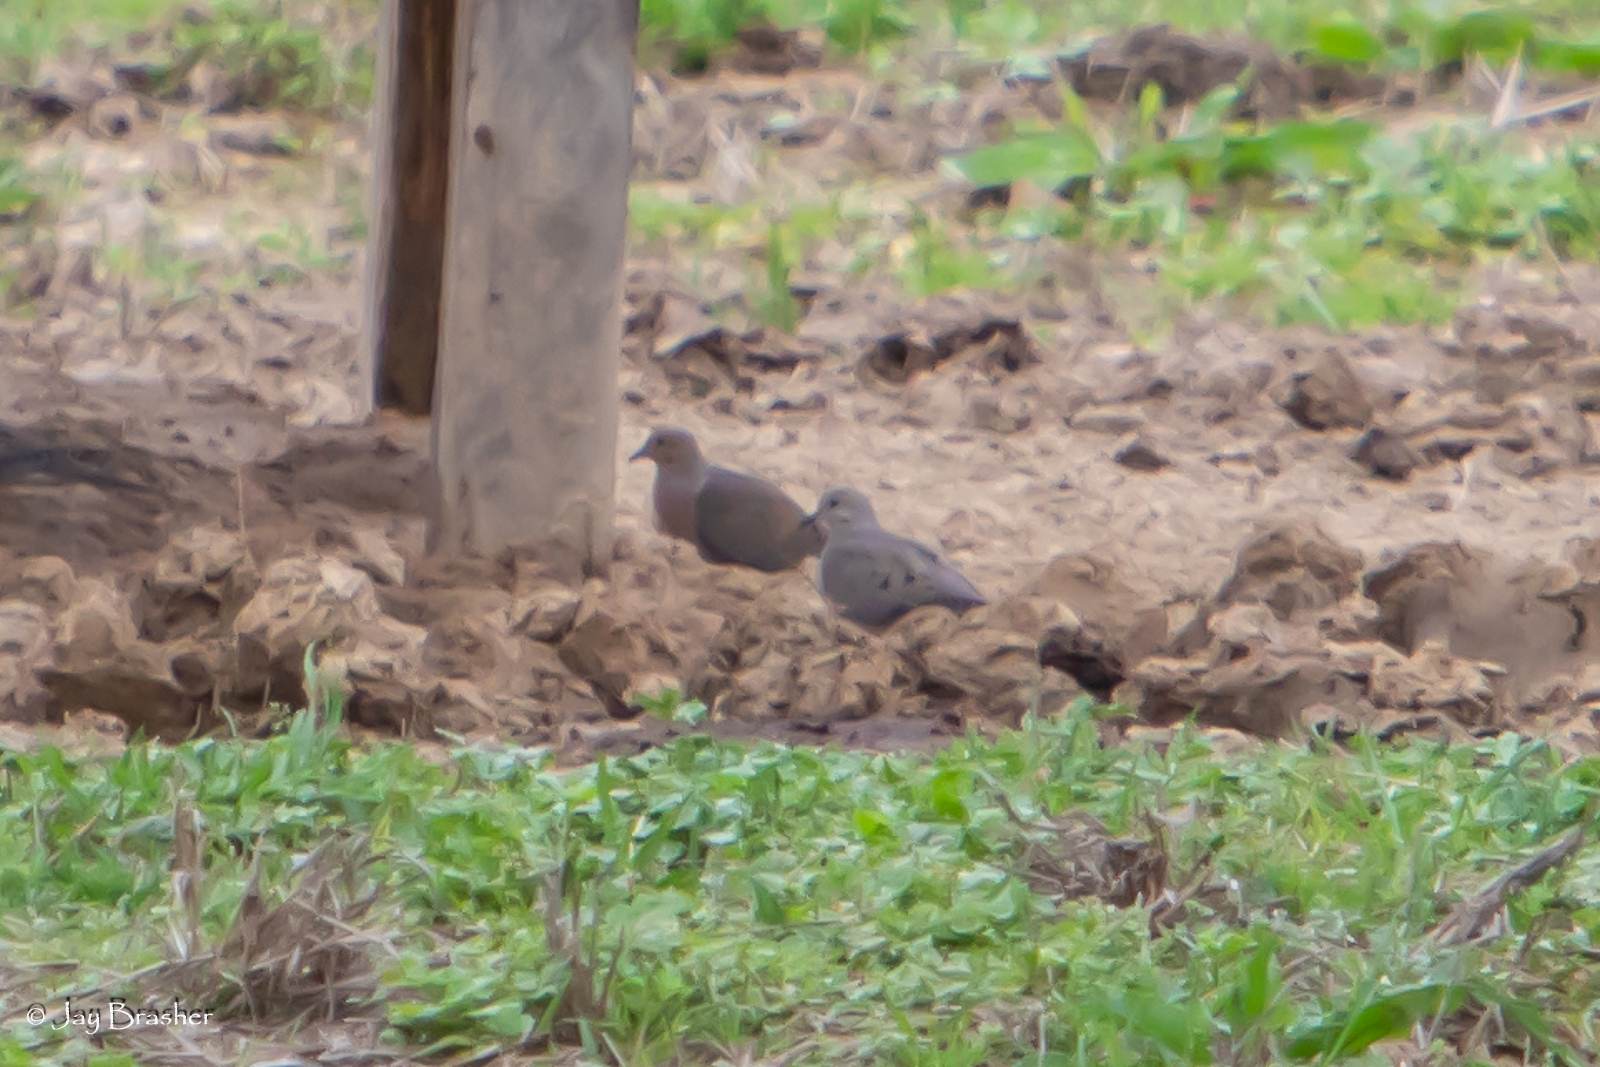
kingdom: Animalia
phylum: Chordata
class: Aves
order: Columbiformes
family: Columbidae
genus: Zenaida
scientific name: Zenaida macroura
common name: Mourning dove
